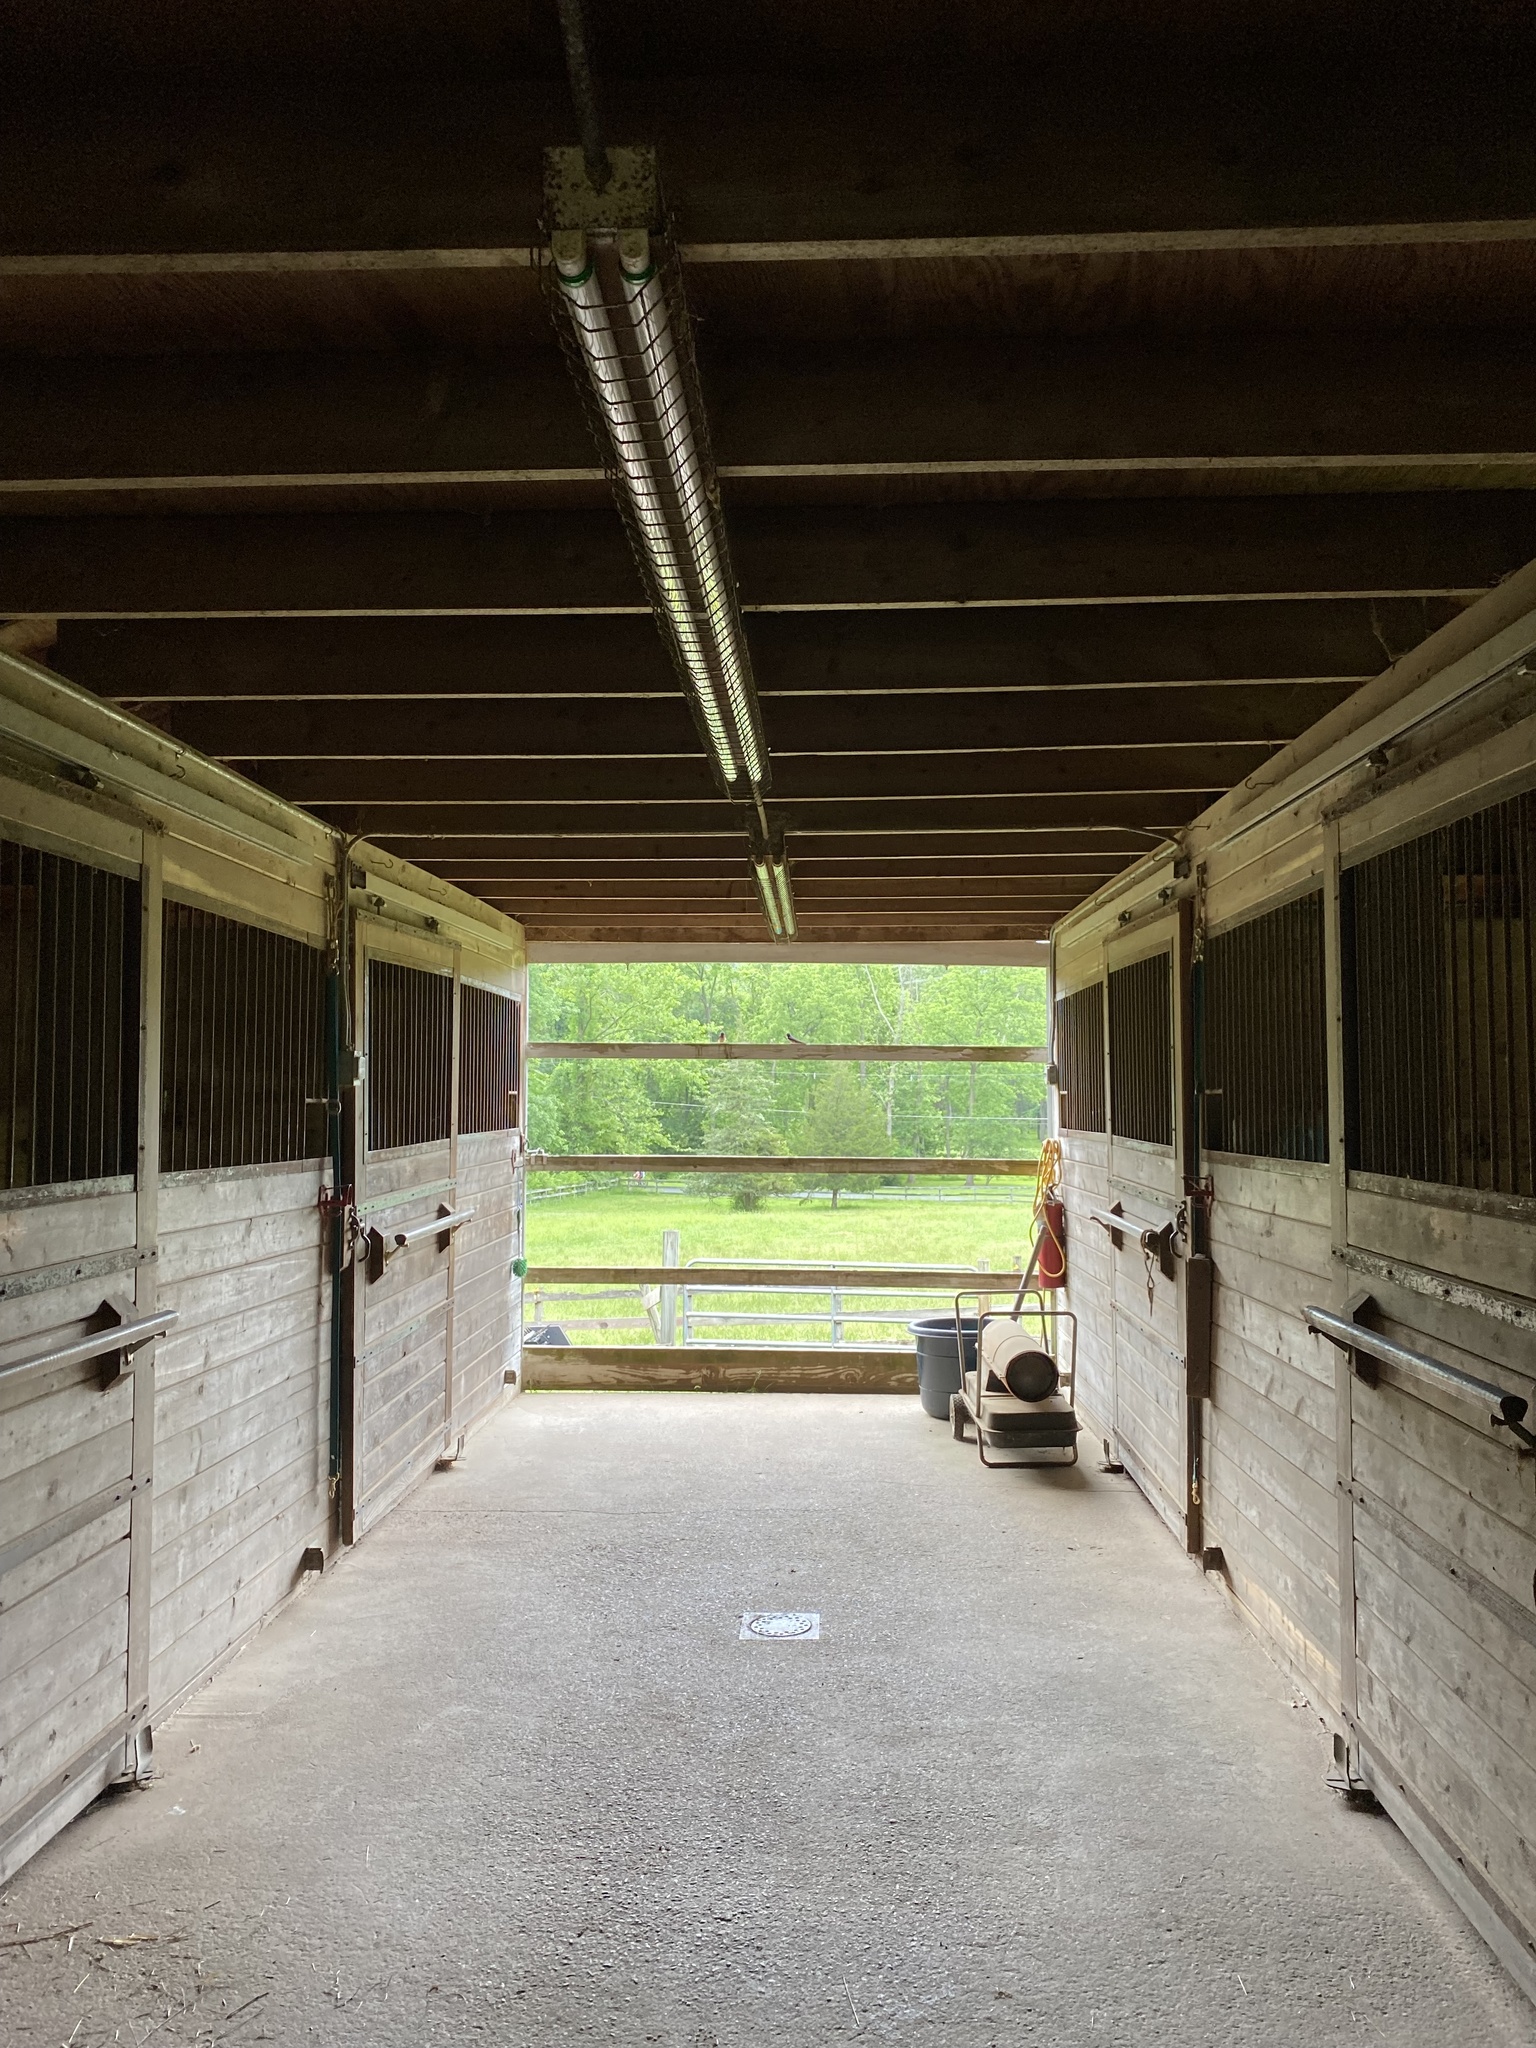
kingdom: Animalia
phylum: Chordata
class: Aves
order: Passeriformes
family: Hirundinidae
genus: Hirundo
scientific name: Hirundo rustica
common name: Barn swallow
